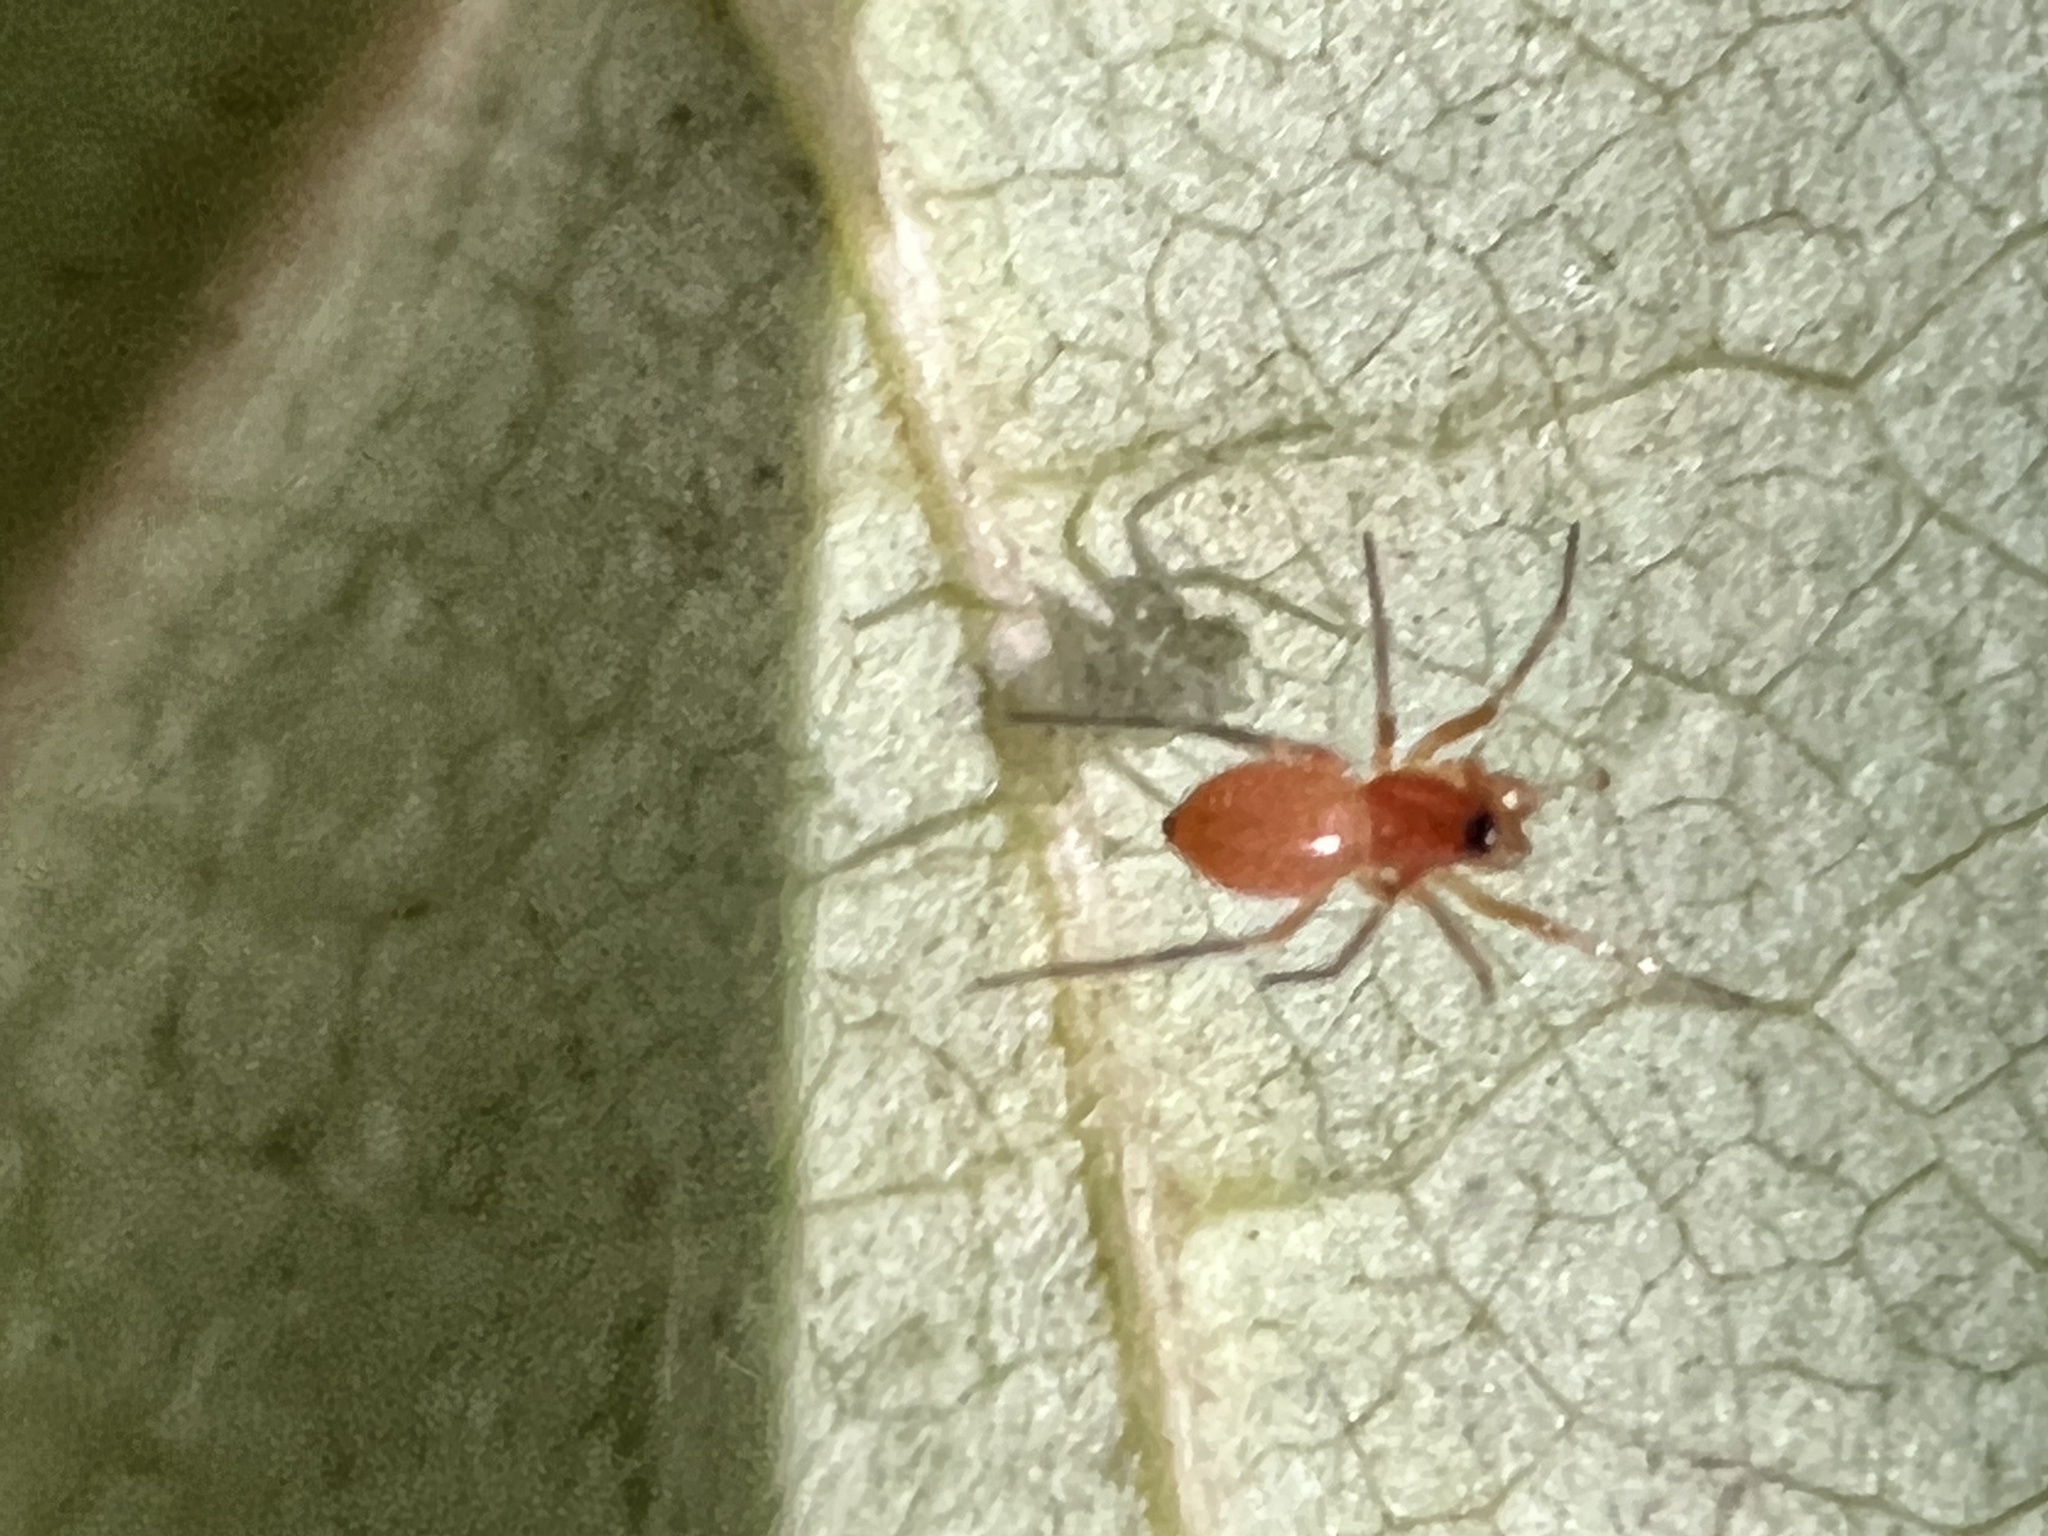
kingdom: Animalia
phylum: Arthropoda
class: Arachnida
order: Araneae
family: Linyphiidae
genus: Florinda
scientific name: Florinda coccinea
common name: Black-tailed red sheetweaver
